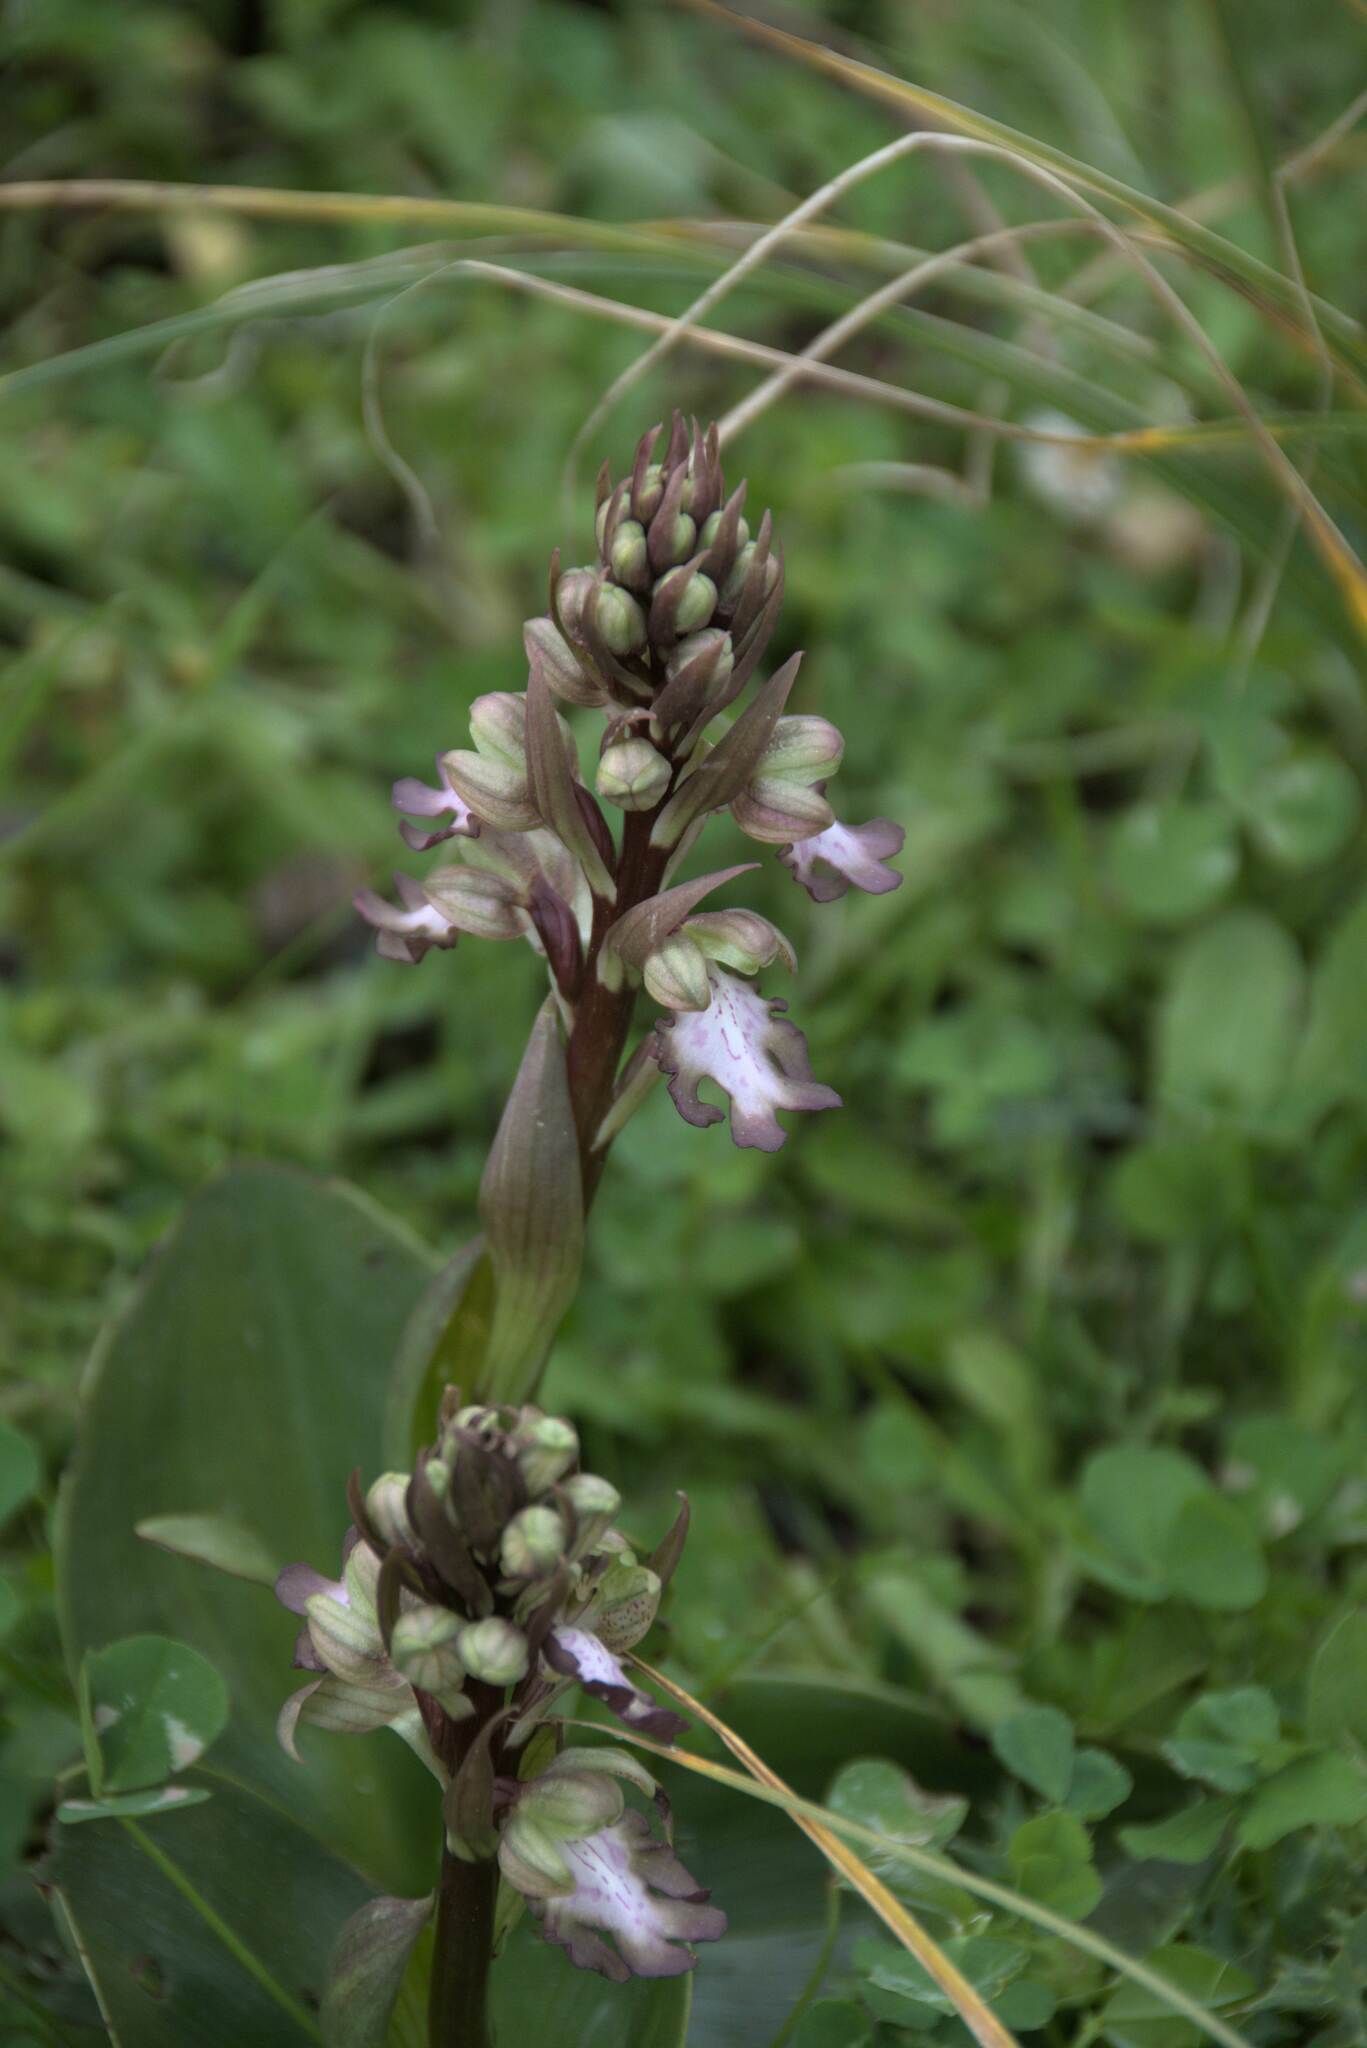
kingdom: Plantae
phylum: Tracheophyta
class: Liliopsida
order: Asparagales
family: Orchidaceae
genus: Himantoglossum
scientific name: Himantoglossum robertianum
